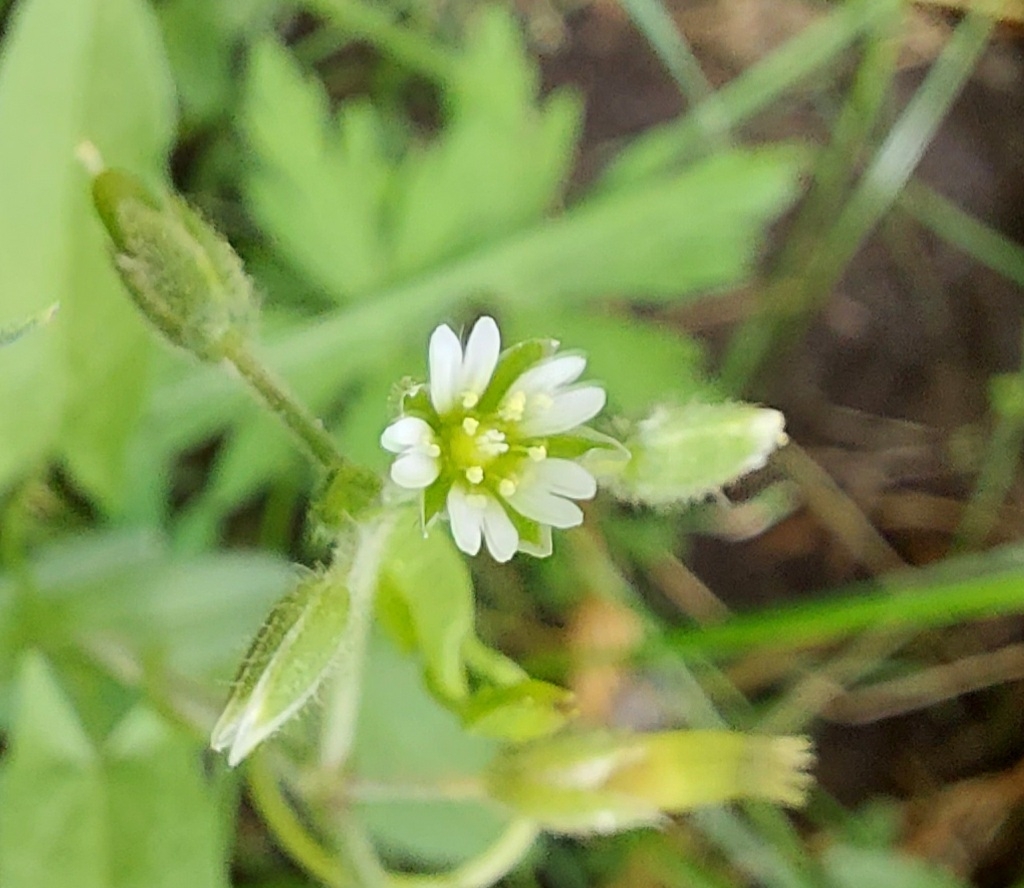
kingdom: Plantae
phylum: Tracheophyta
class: Magnoliopsida
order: Caryophyllales
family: Caryophyllaceae
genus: Cerastium
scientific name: Cerastium holosteoides
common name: Big chickweed
